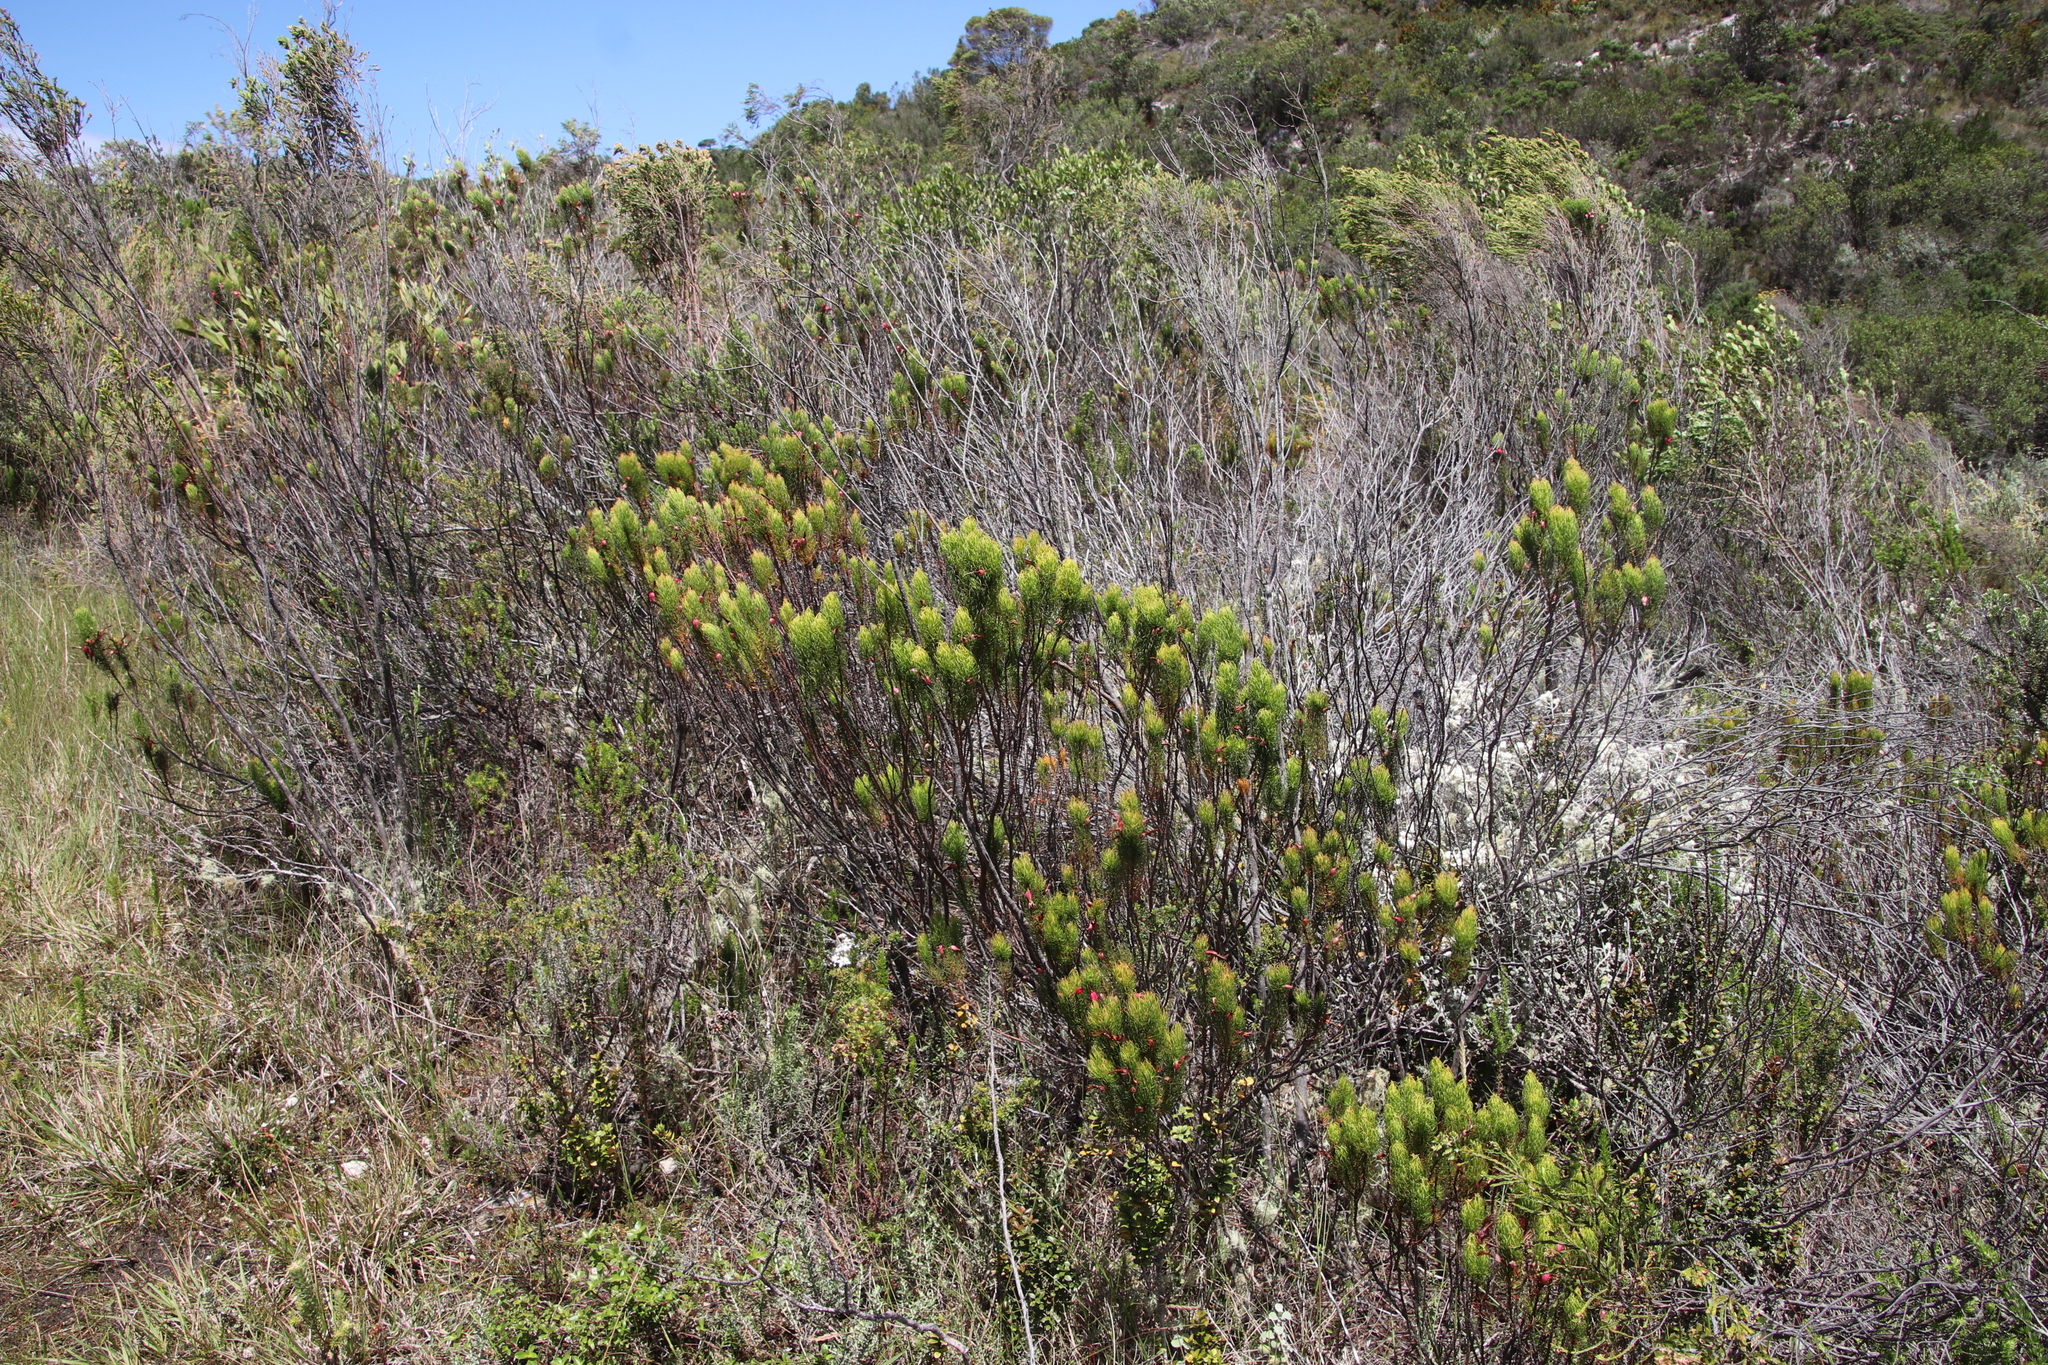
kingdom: Plantae
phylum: Tracheophyta
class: Magnoliopsida
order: Ericales
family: Ericaceae
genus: Erica
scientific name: Erica plukenetii
